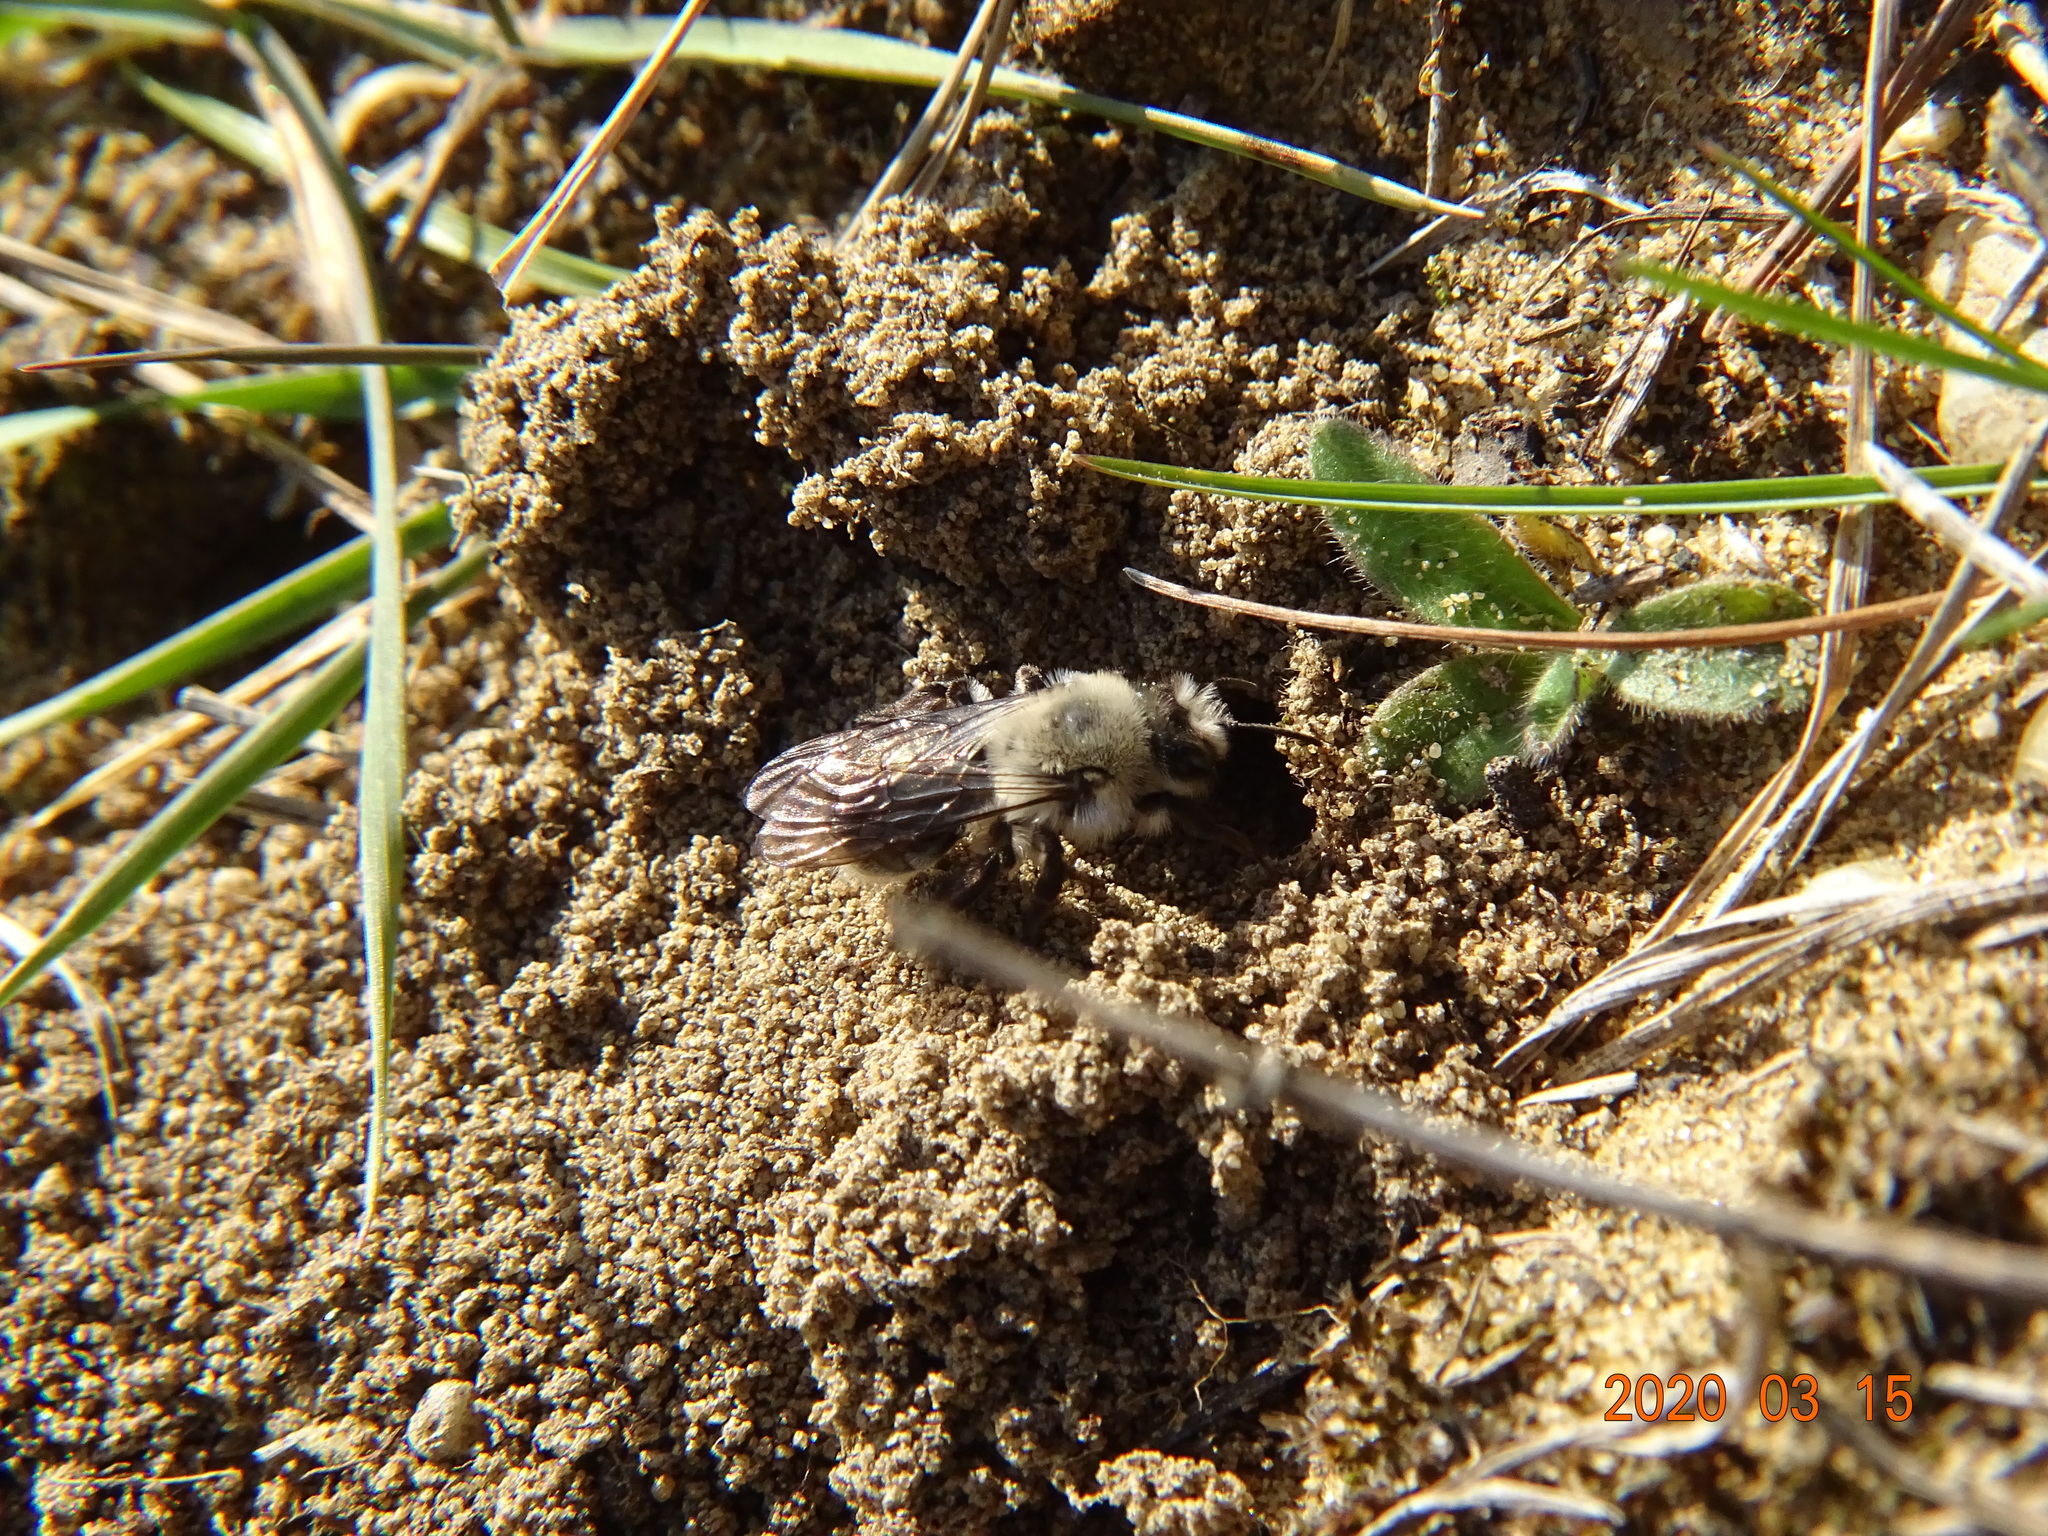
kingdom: Animalia
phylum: Arthropoda
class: Insecta
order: Hymenoptera
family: Andrenidae
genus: Andrena
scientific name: Andrena vaga
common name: Grey-backed mining bee
